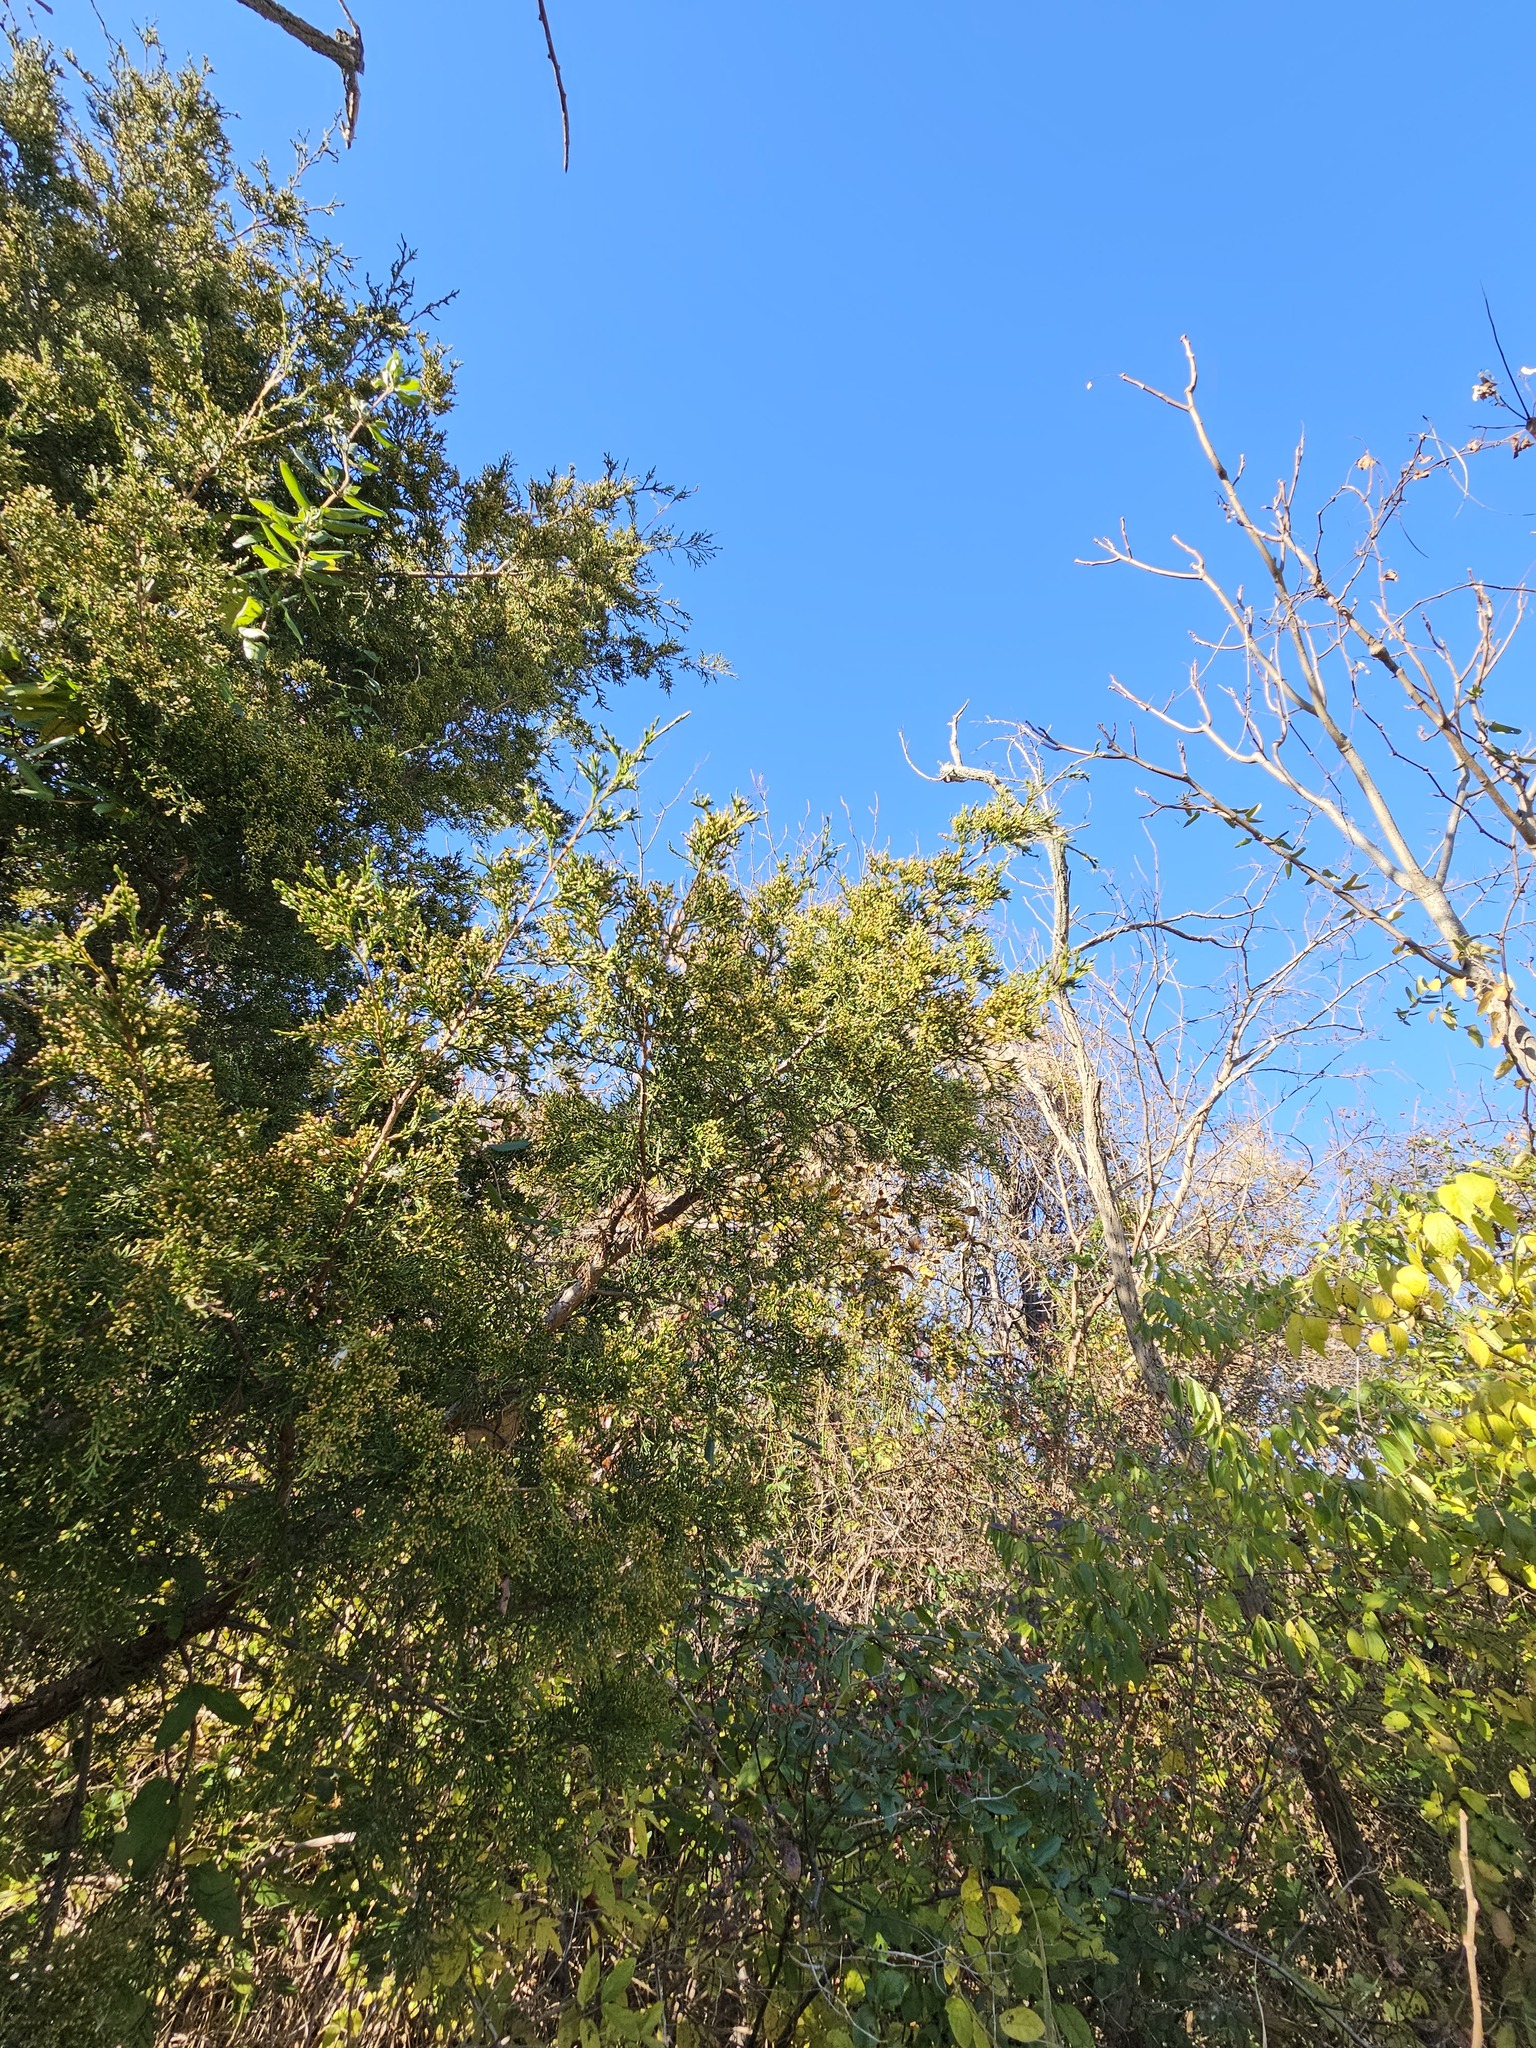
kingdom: Plantae
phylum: Tracheophyta
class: Pinopsida
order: Pinales
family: Cupressaceae
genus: Juniperus
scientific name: Juniperus virginiana
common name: Red juniper
